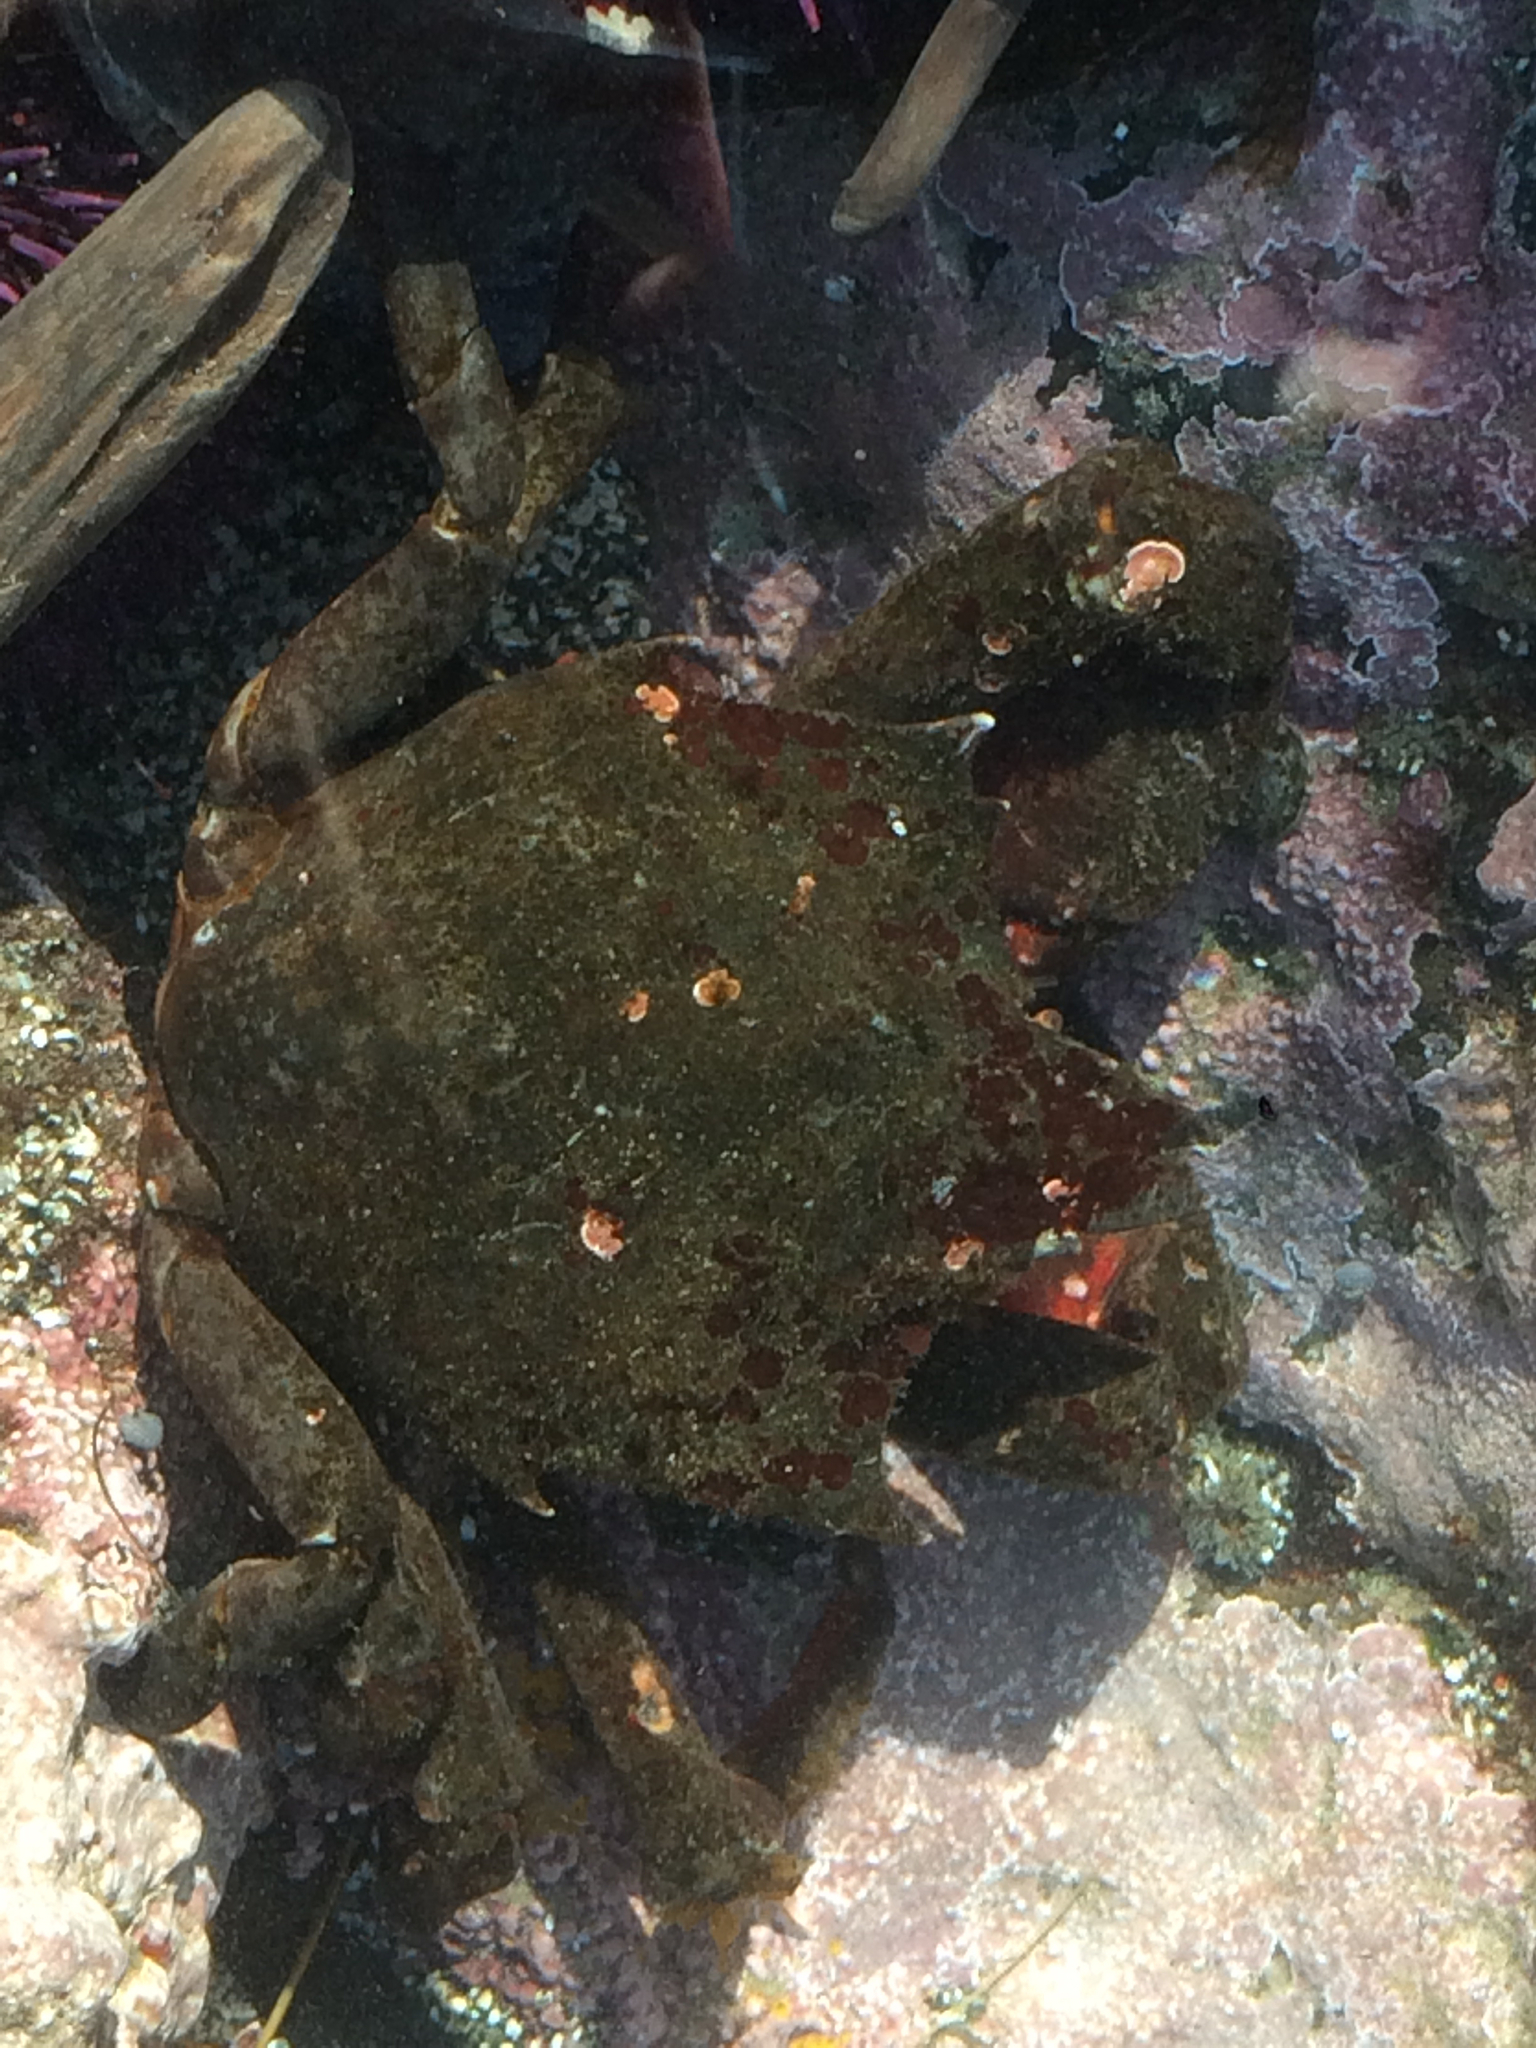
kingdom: Animalia
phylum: Arthropoda
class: Malacostraca
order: Decapoda
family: Epialtidae
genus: Pugettia
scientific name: Pugettia producta
